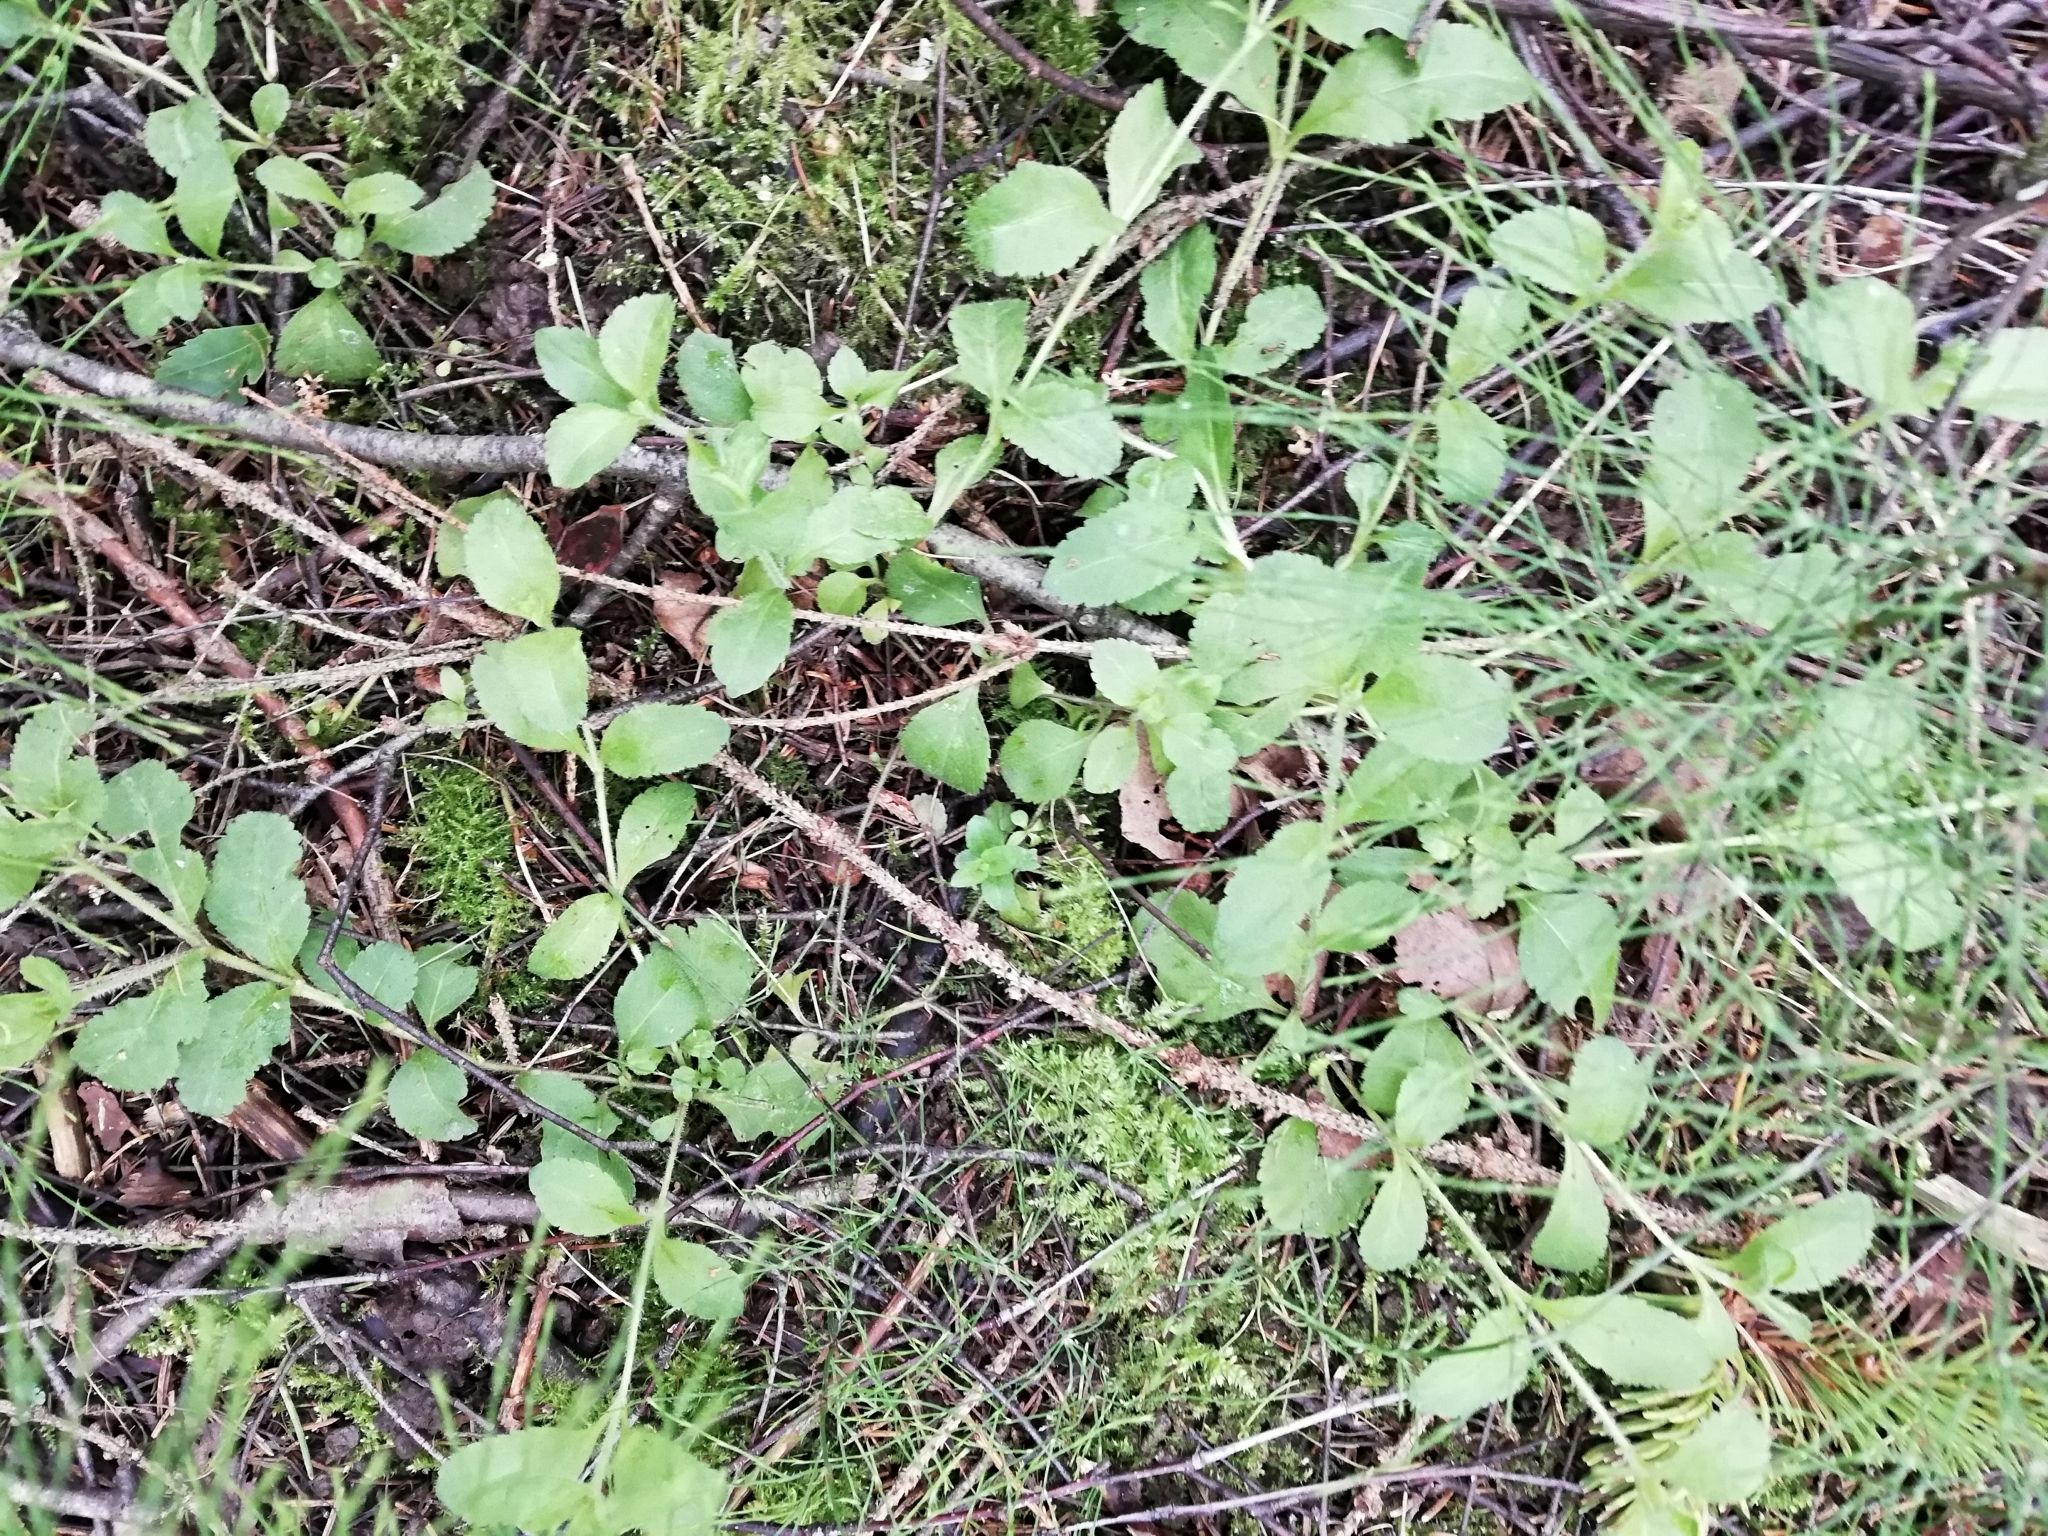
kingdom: Plantae
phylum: Tracheophyta
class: Magnoliopsida
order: Lamiales
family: Plantaginaceae
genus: Veronica
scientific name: Veronica officinalis
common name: Common speedwell
